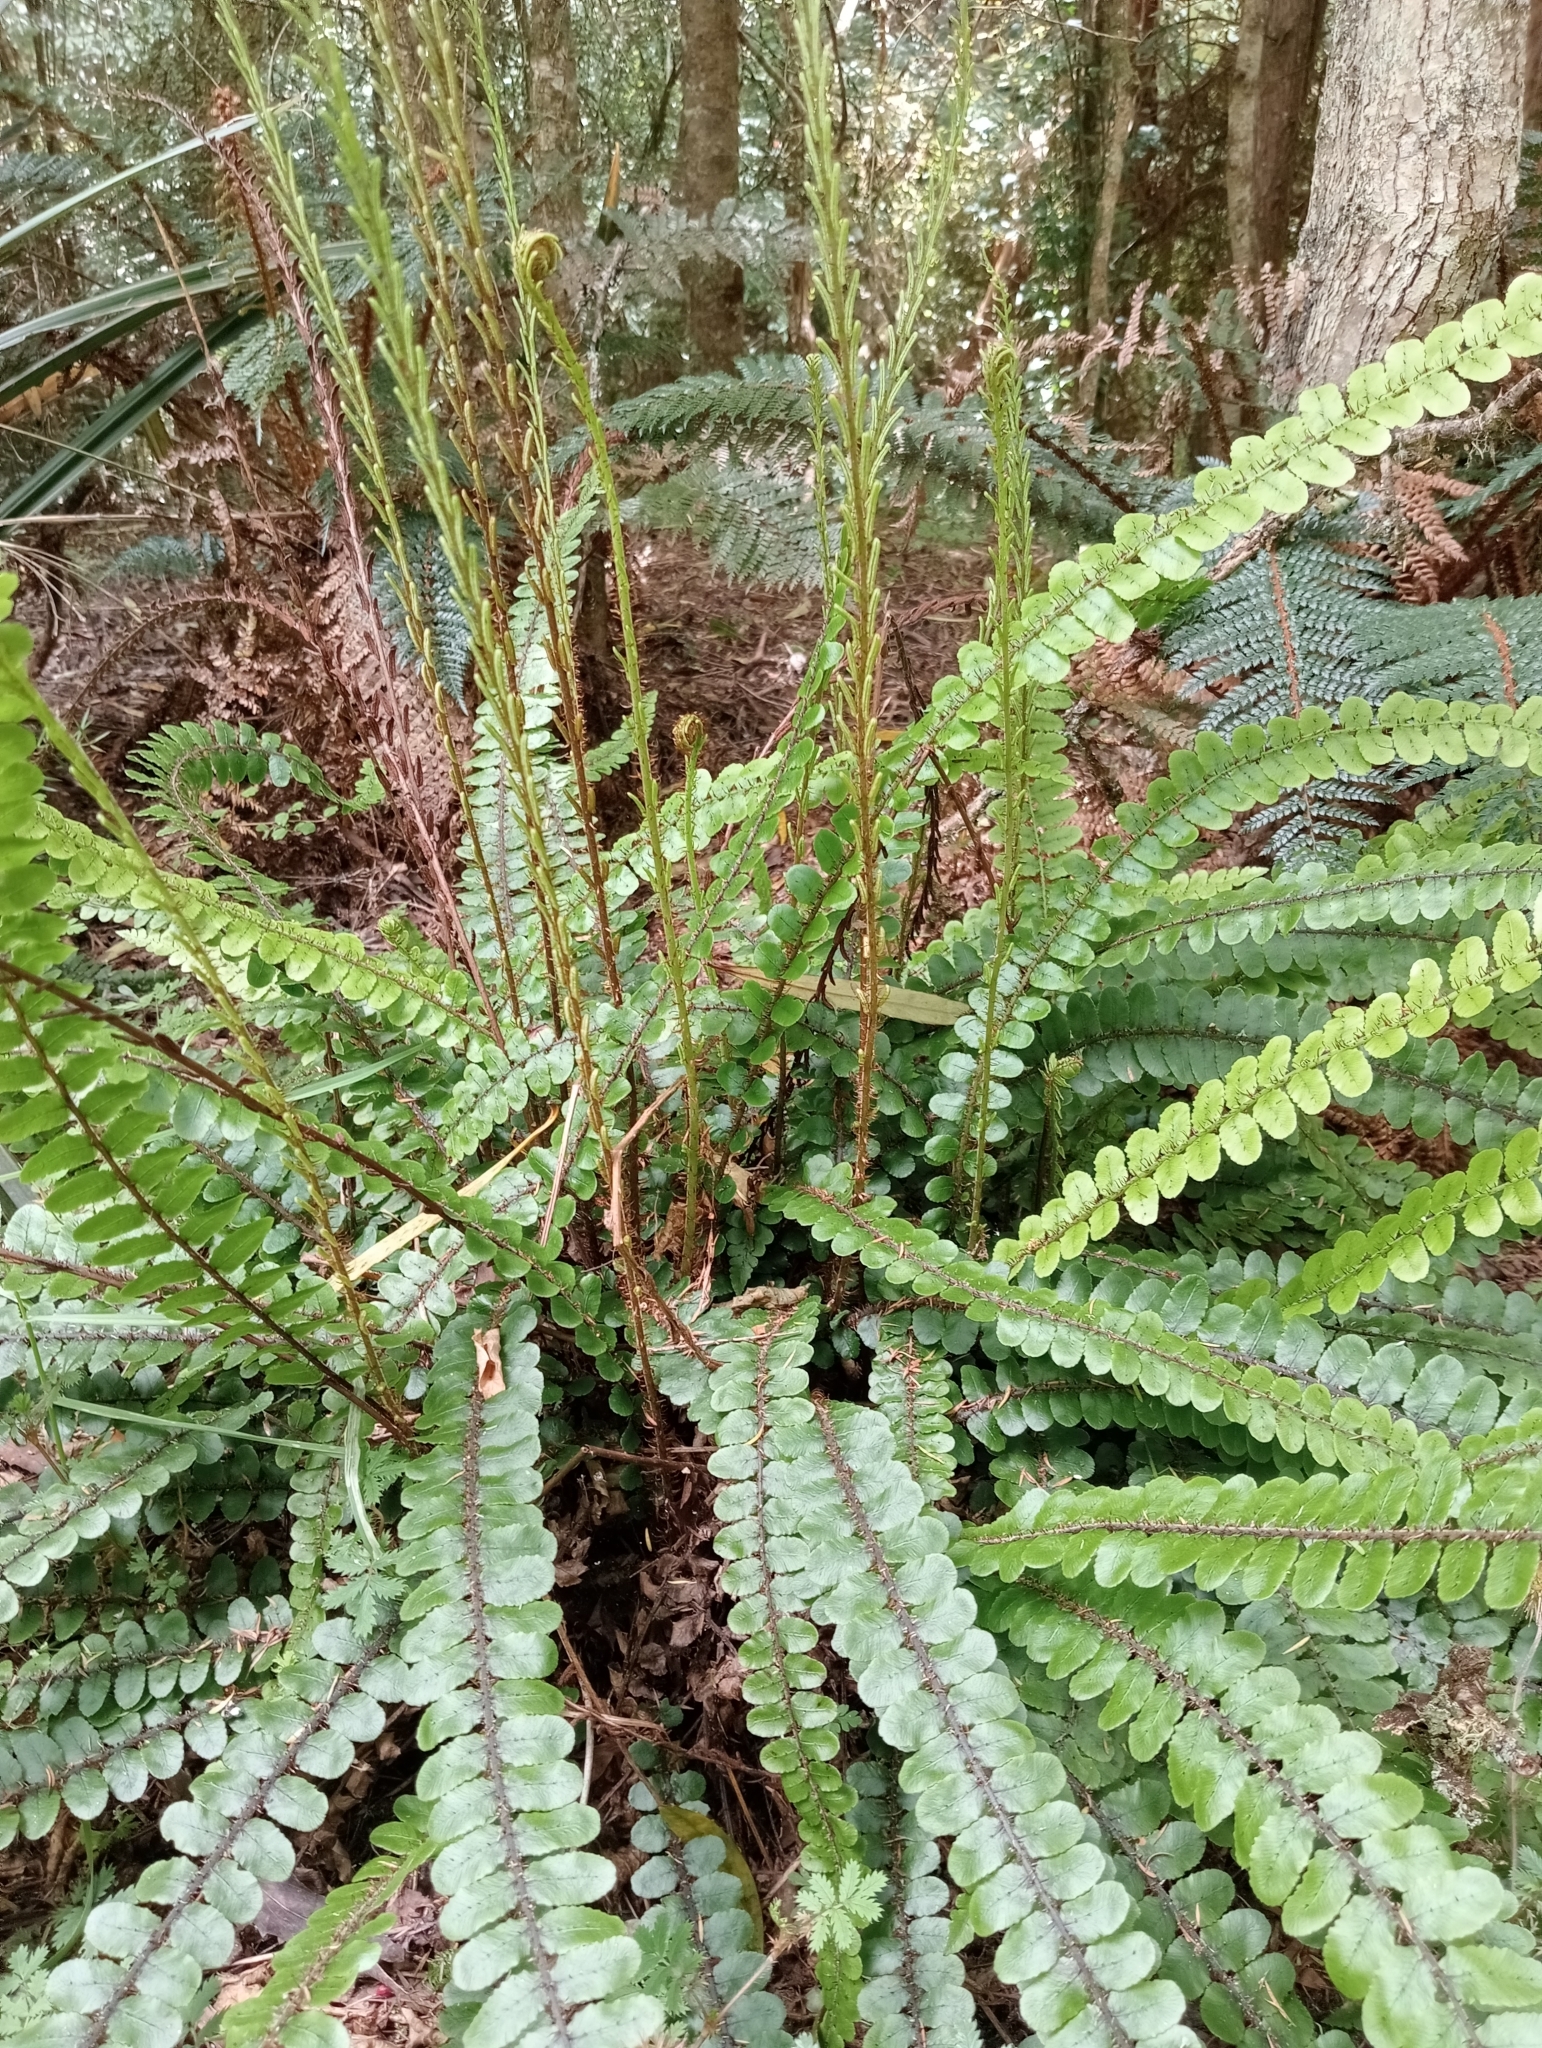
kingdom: Plantae
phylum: Tracheophyta
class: Polypodiopsida
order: Polypodiales
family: Blechnaceae
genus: Cranfillia
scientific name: Cranfillia fluviatilis
